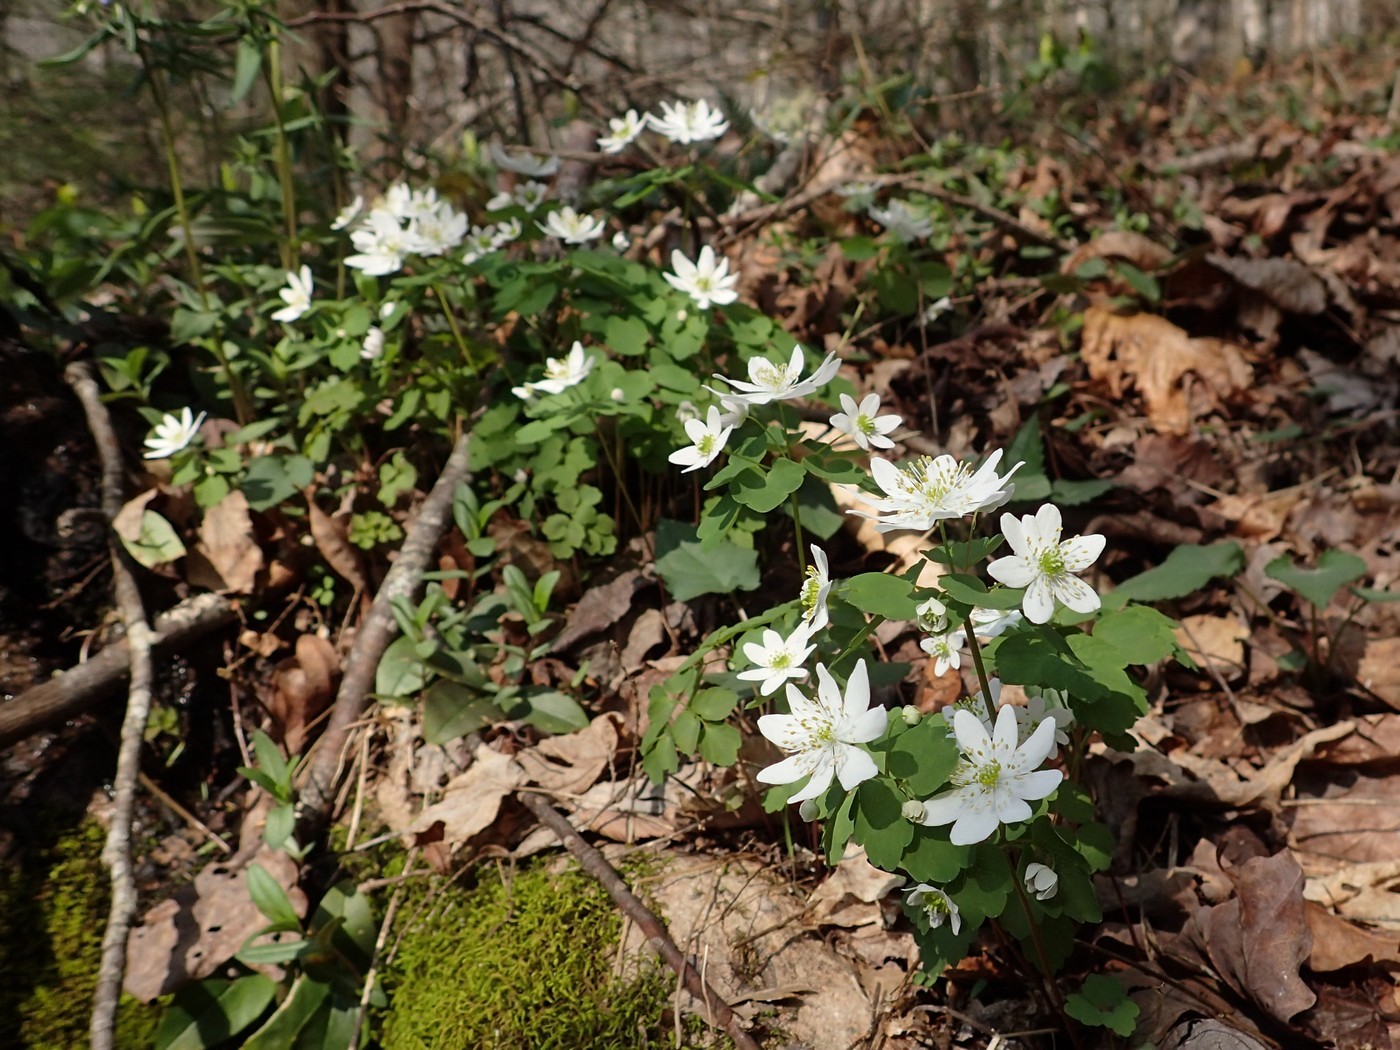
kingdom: Plantae
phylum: Tracheophyta
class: Magnoliopsida
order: Ranunculales
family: Ranunculaceae
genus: Thalictrum
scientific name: Thalictrum thalictroides
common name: Rue-anemone
